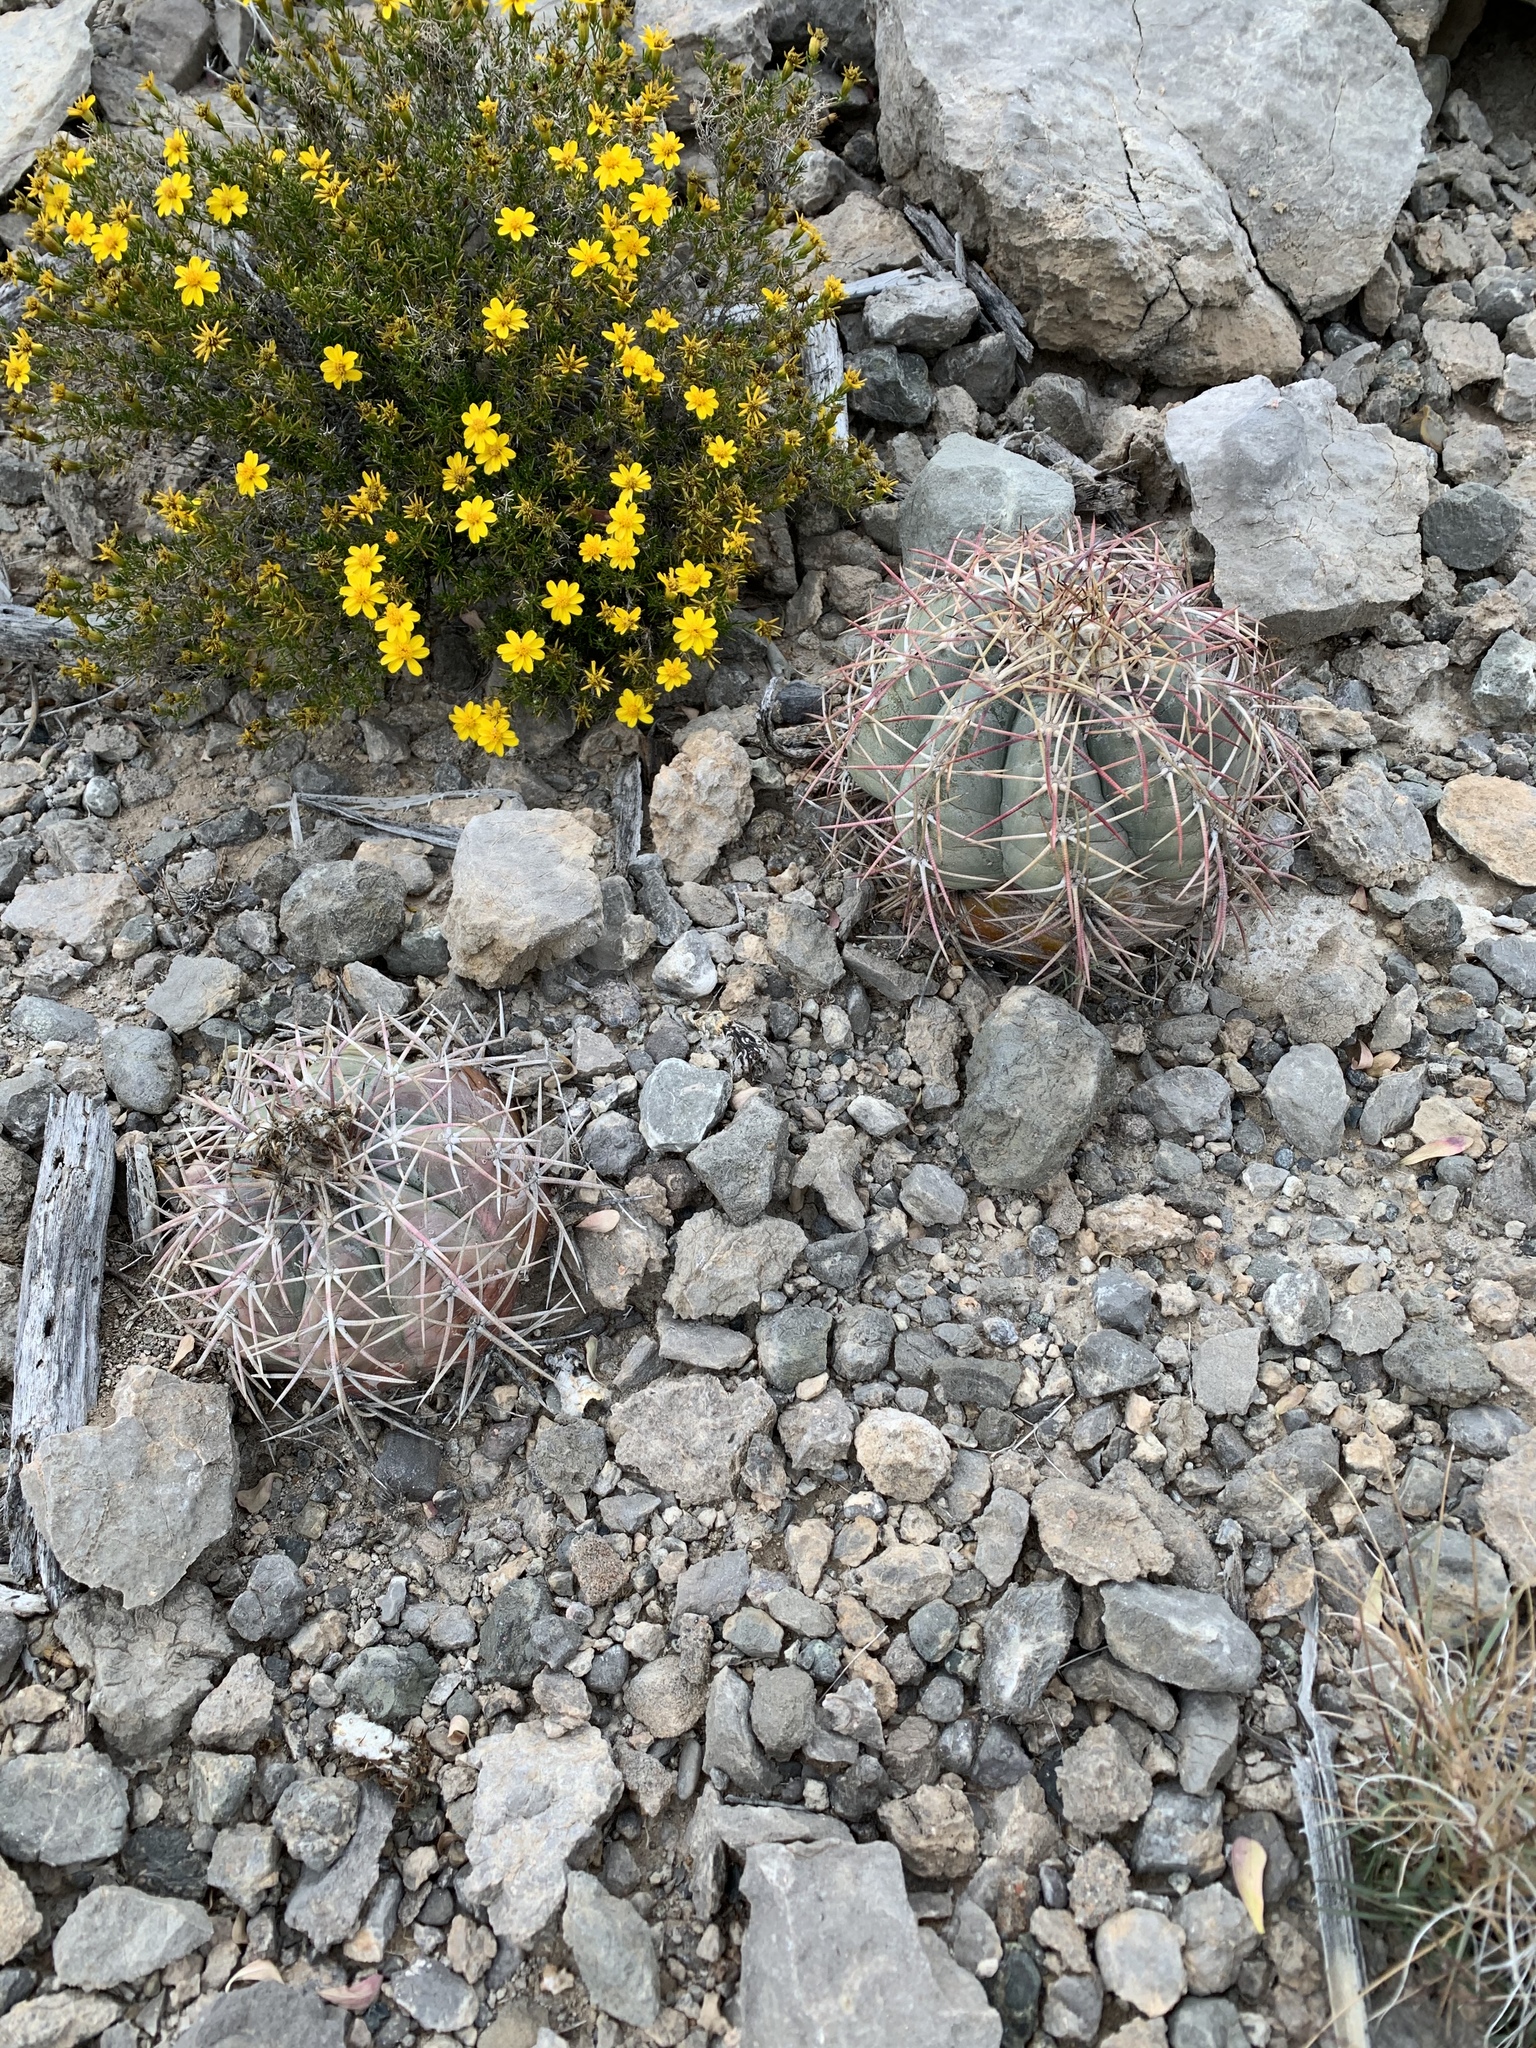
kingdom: Plantae
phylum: Tracheophyta
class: Magnoliopsida
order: Caryophyllales
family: Cactaceae
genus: Echinocactus
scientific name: Echinocactus horizonthalonius
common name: Devilshead
